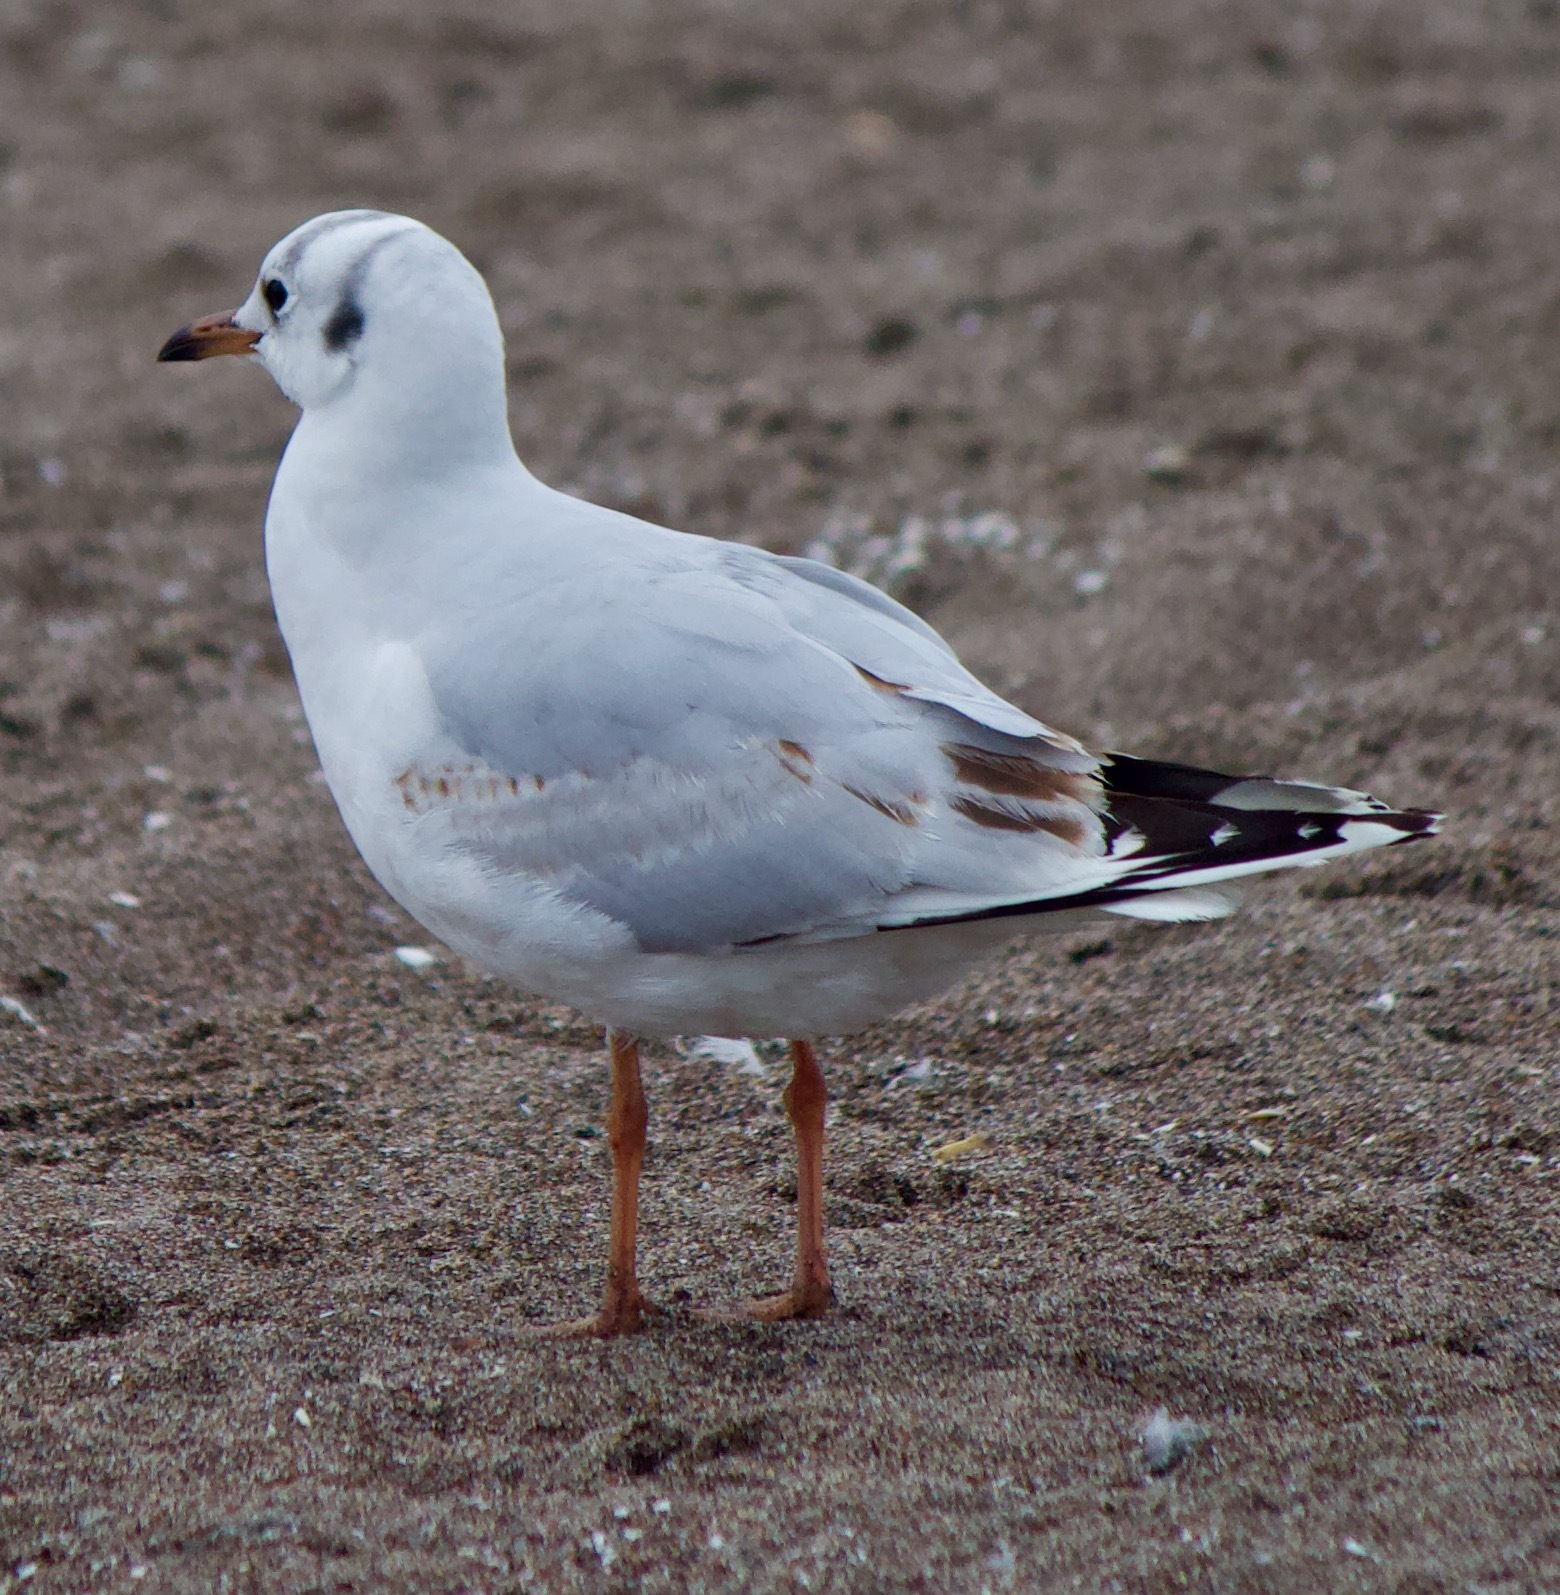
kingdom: Animalia
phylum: Chordata
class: Aves
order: Charadriiformes
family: Laridae
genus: Chroicocephalus
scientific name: Chroicocephalus maculipennis
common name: Brown-hooded gull
